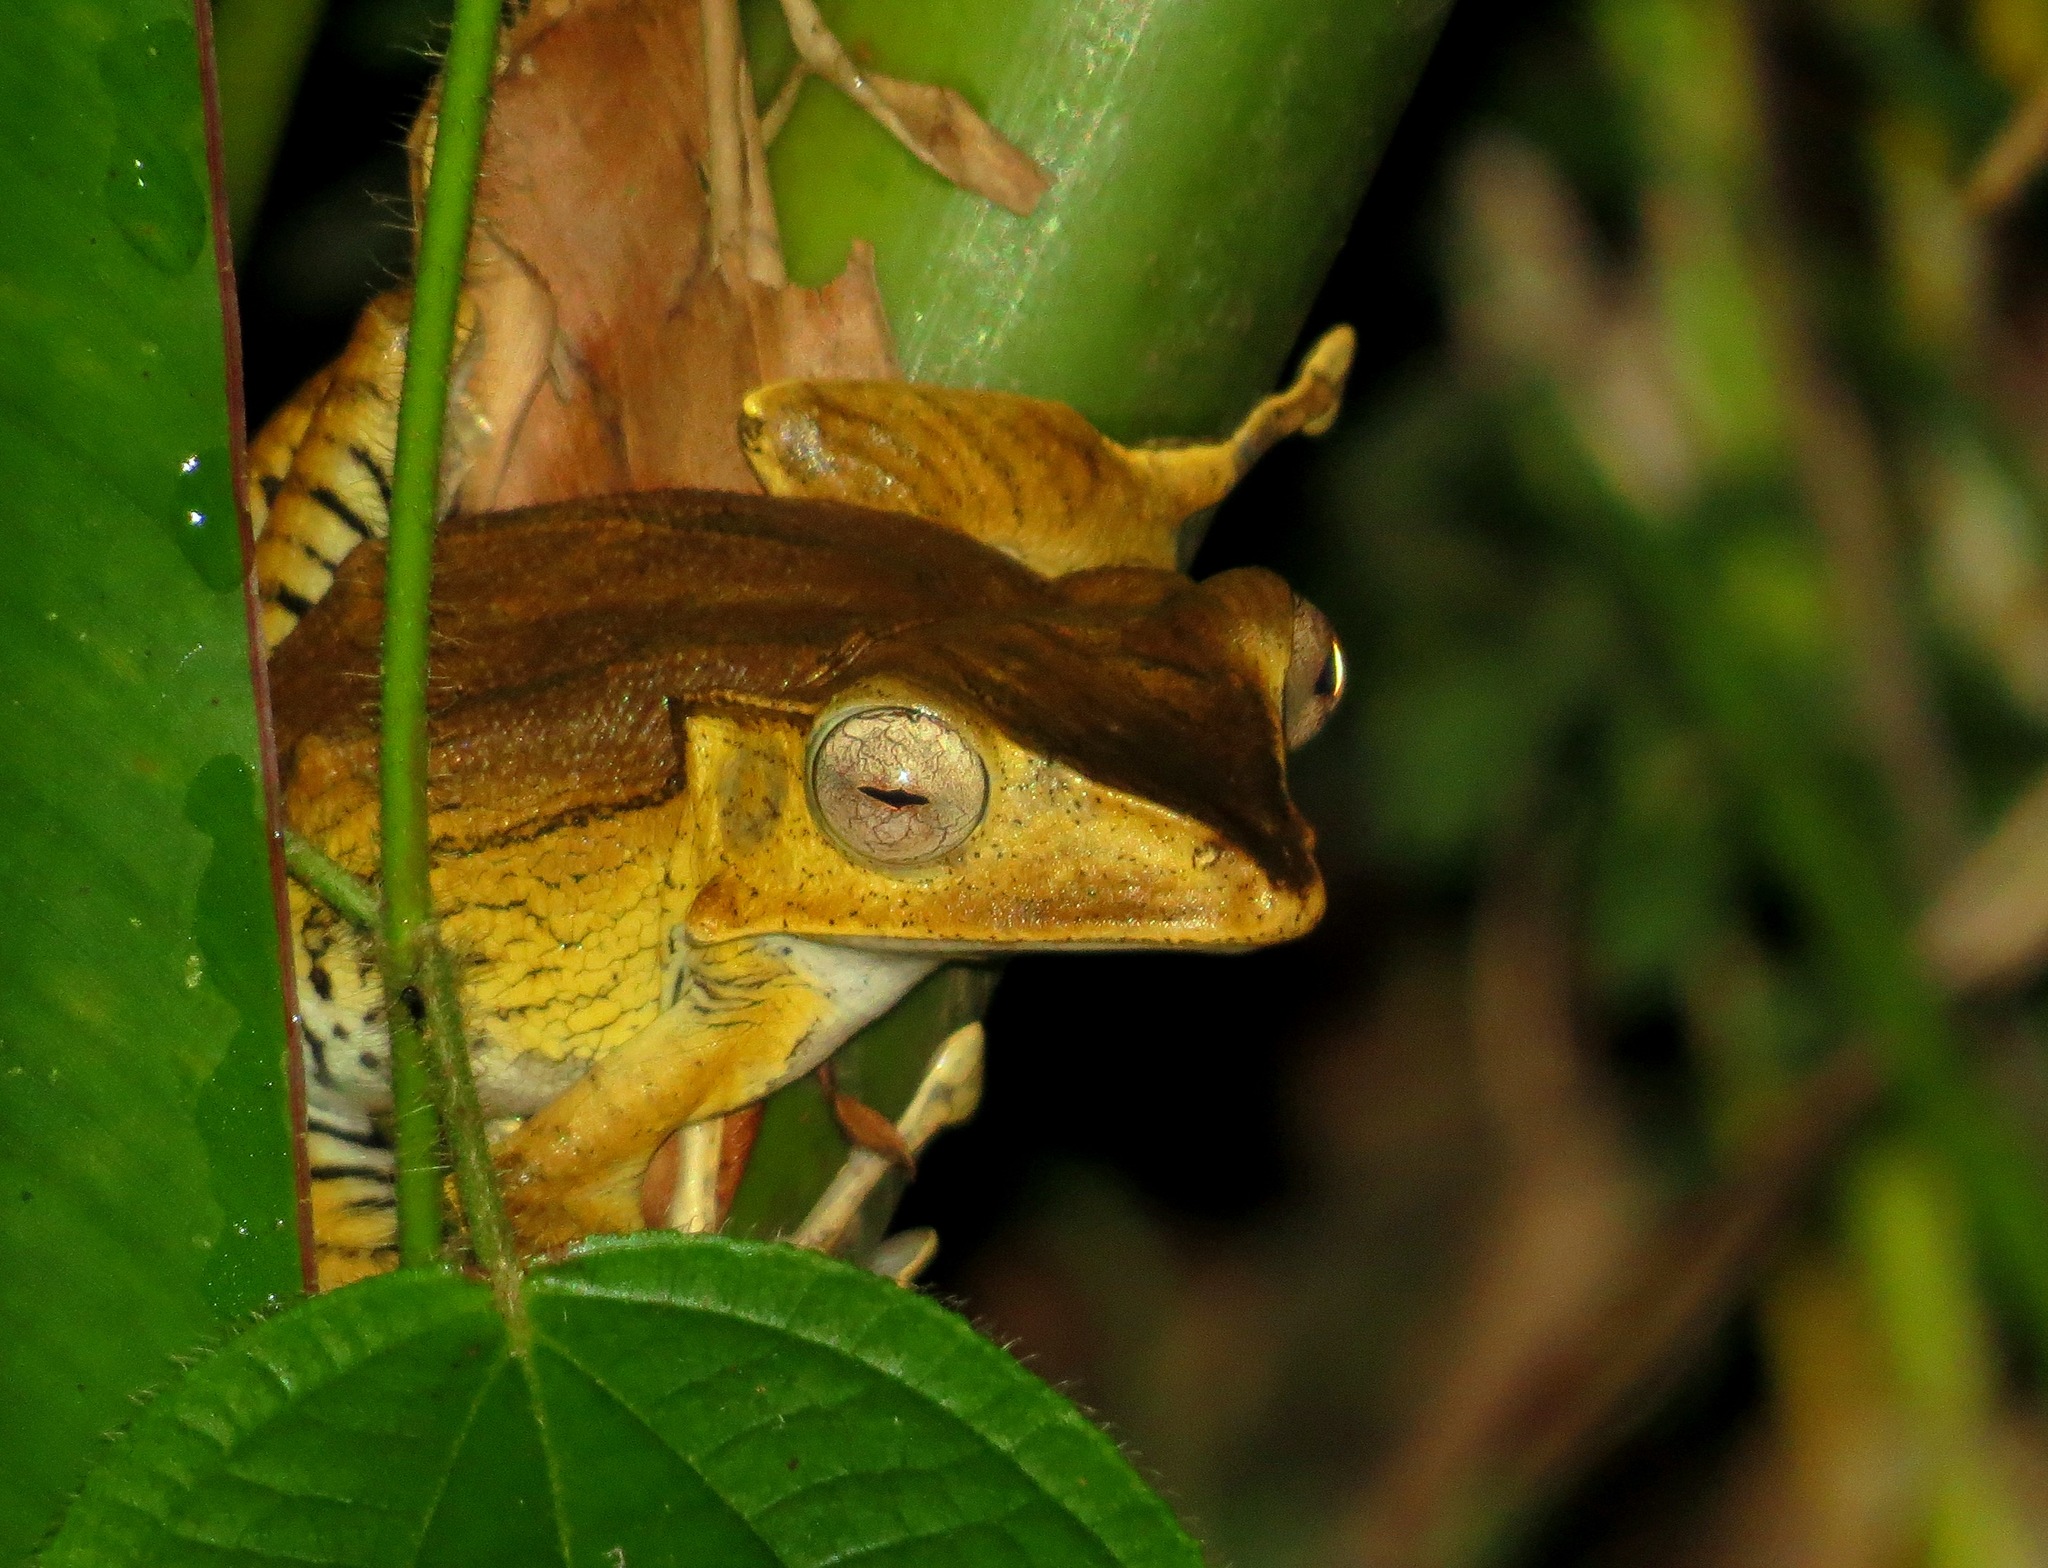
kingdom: Animalia
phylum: Chordata
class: Amphibia
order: Anura
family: Rhacophoridae
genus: Polypedates
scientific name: Polypedates otilophus
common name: File-eared tree frog
